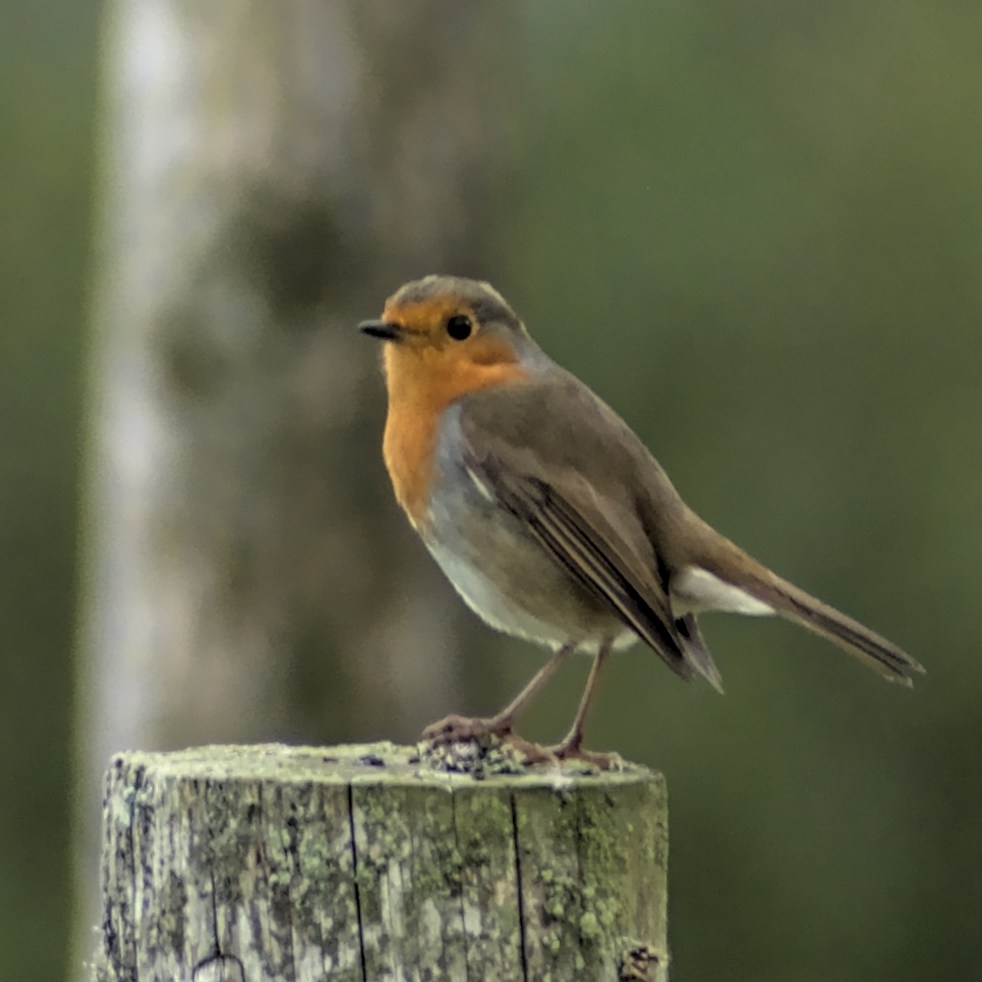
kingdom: Animalia
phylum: Chordata
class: Aves
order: Passeriformes
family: Muscicapidae
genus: Erithacus
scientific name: Erithacus rubecula
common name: European robin
